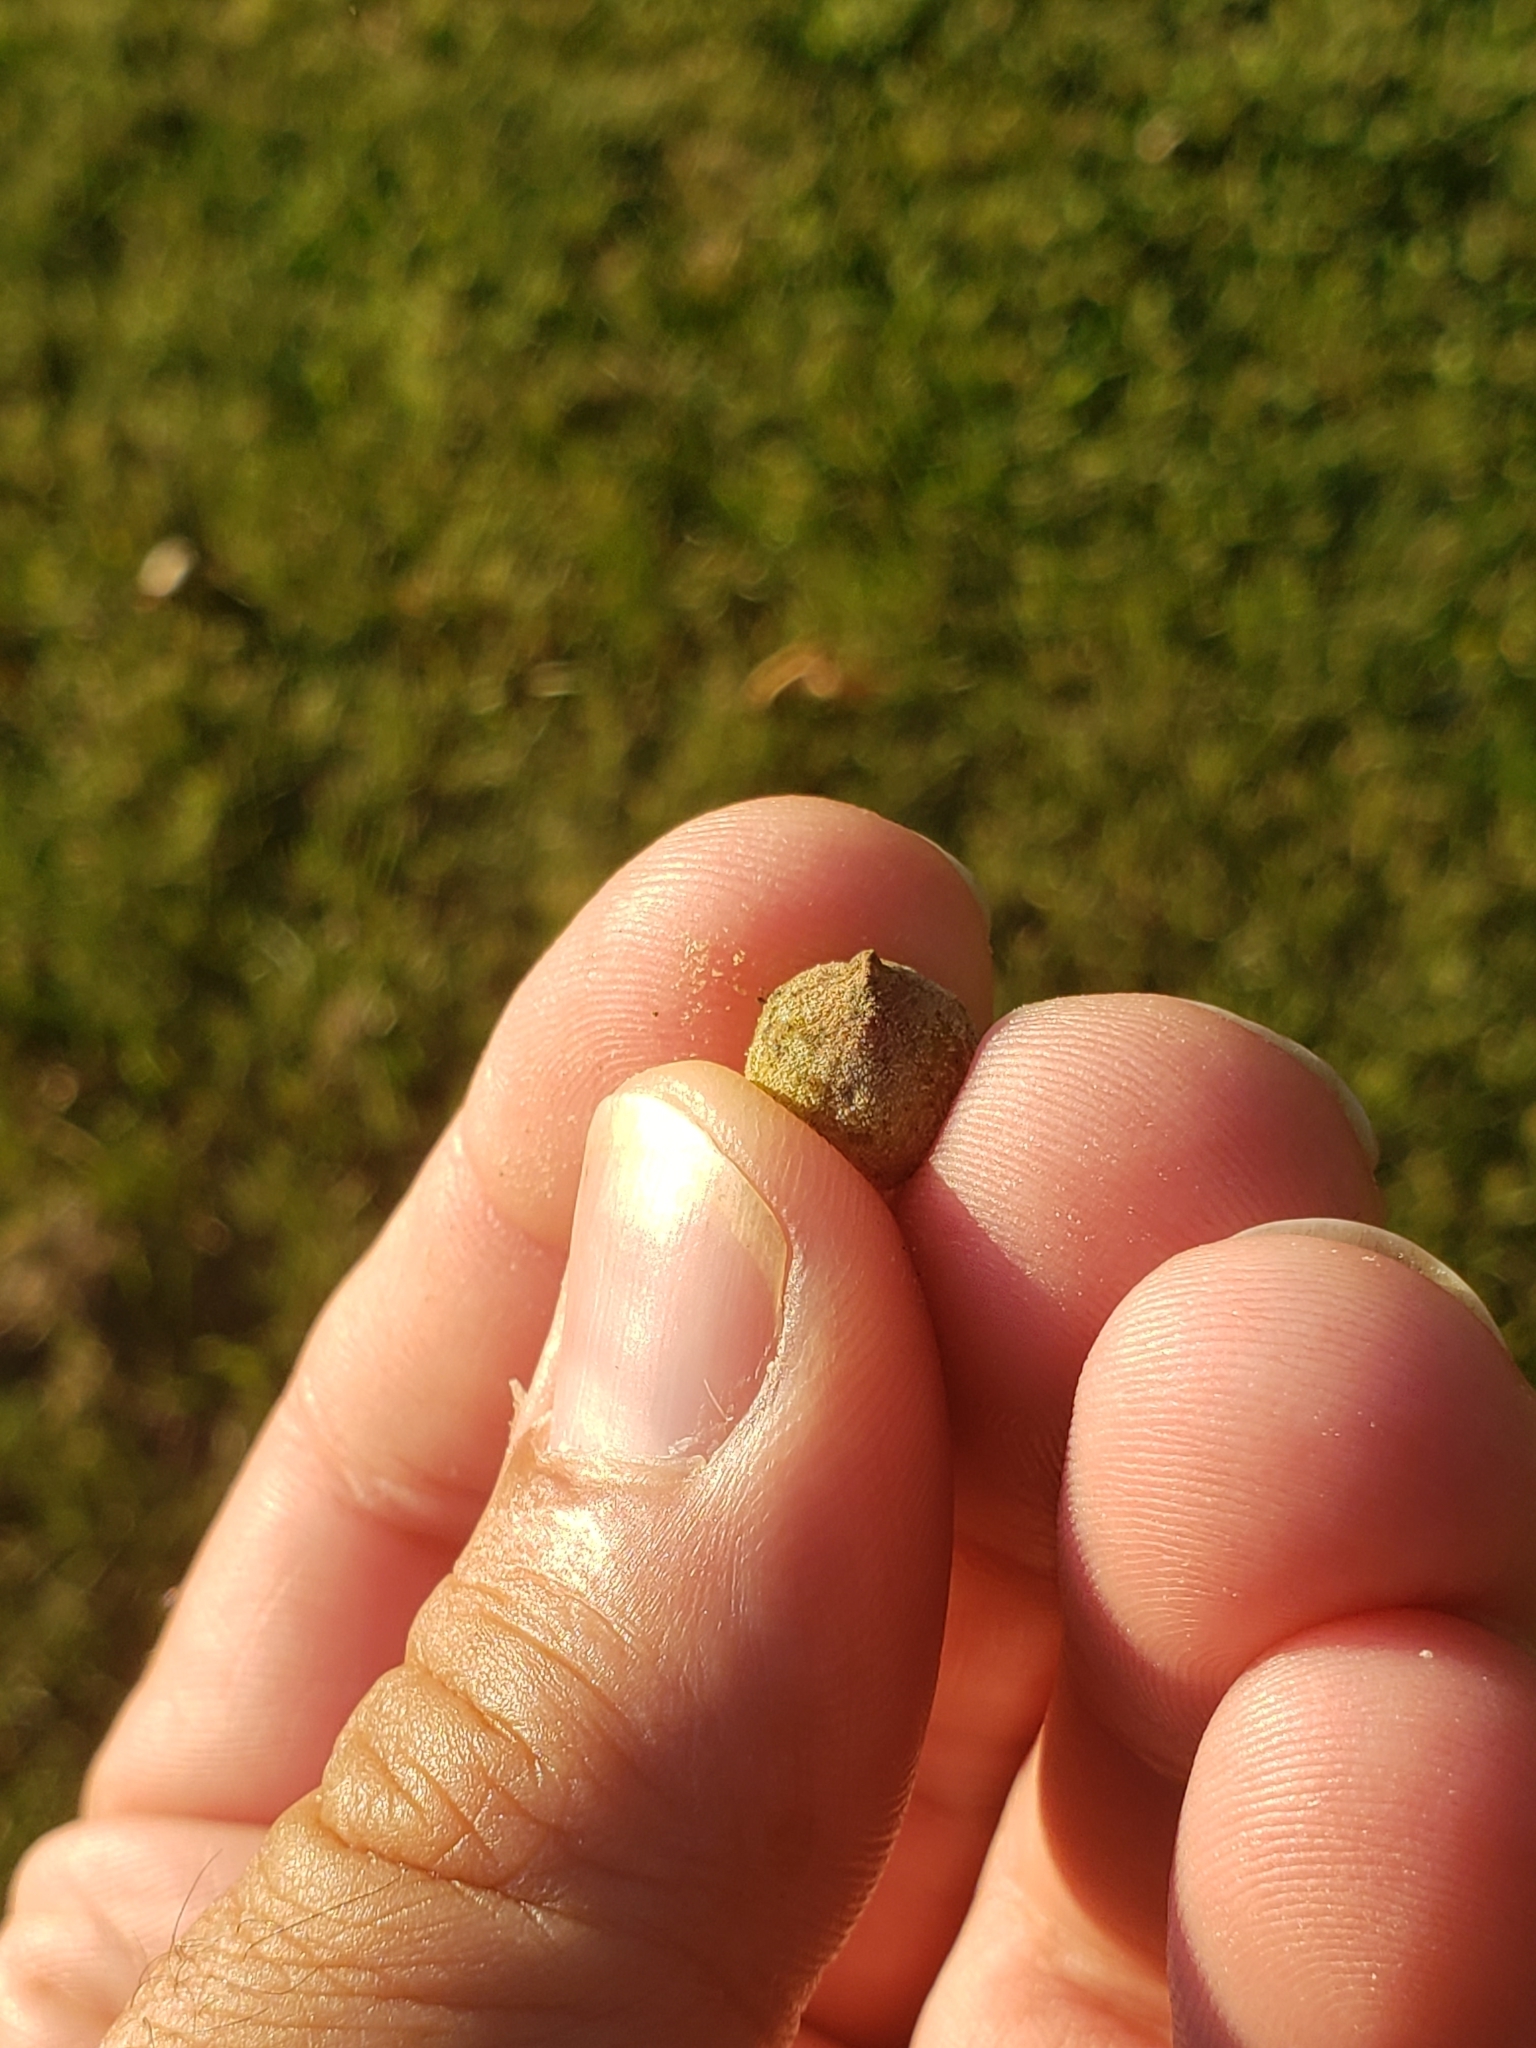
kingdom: Animalia
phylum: Arthropoda
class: Insecta
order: Hymenoptera
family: Cynipidae
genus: Disholcaspis
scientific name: Disholcaspis
